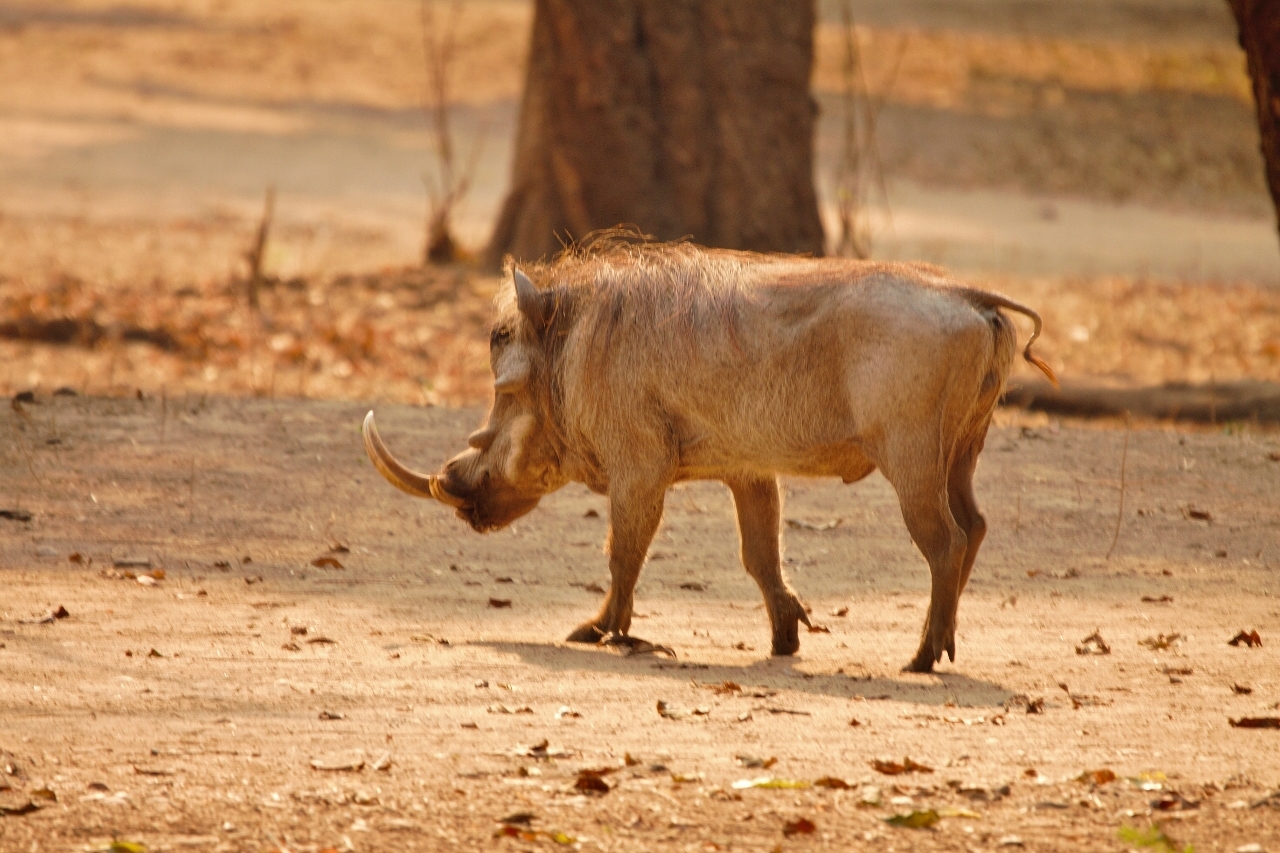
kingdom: Animalia
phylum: Chordata
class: Mammalia
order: Artiodactyla
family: Suidae
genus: Phacochoerus
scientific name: Phacochoerus africanus
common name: Common warthog
